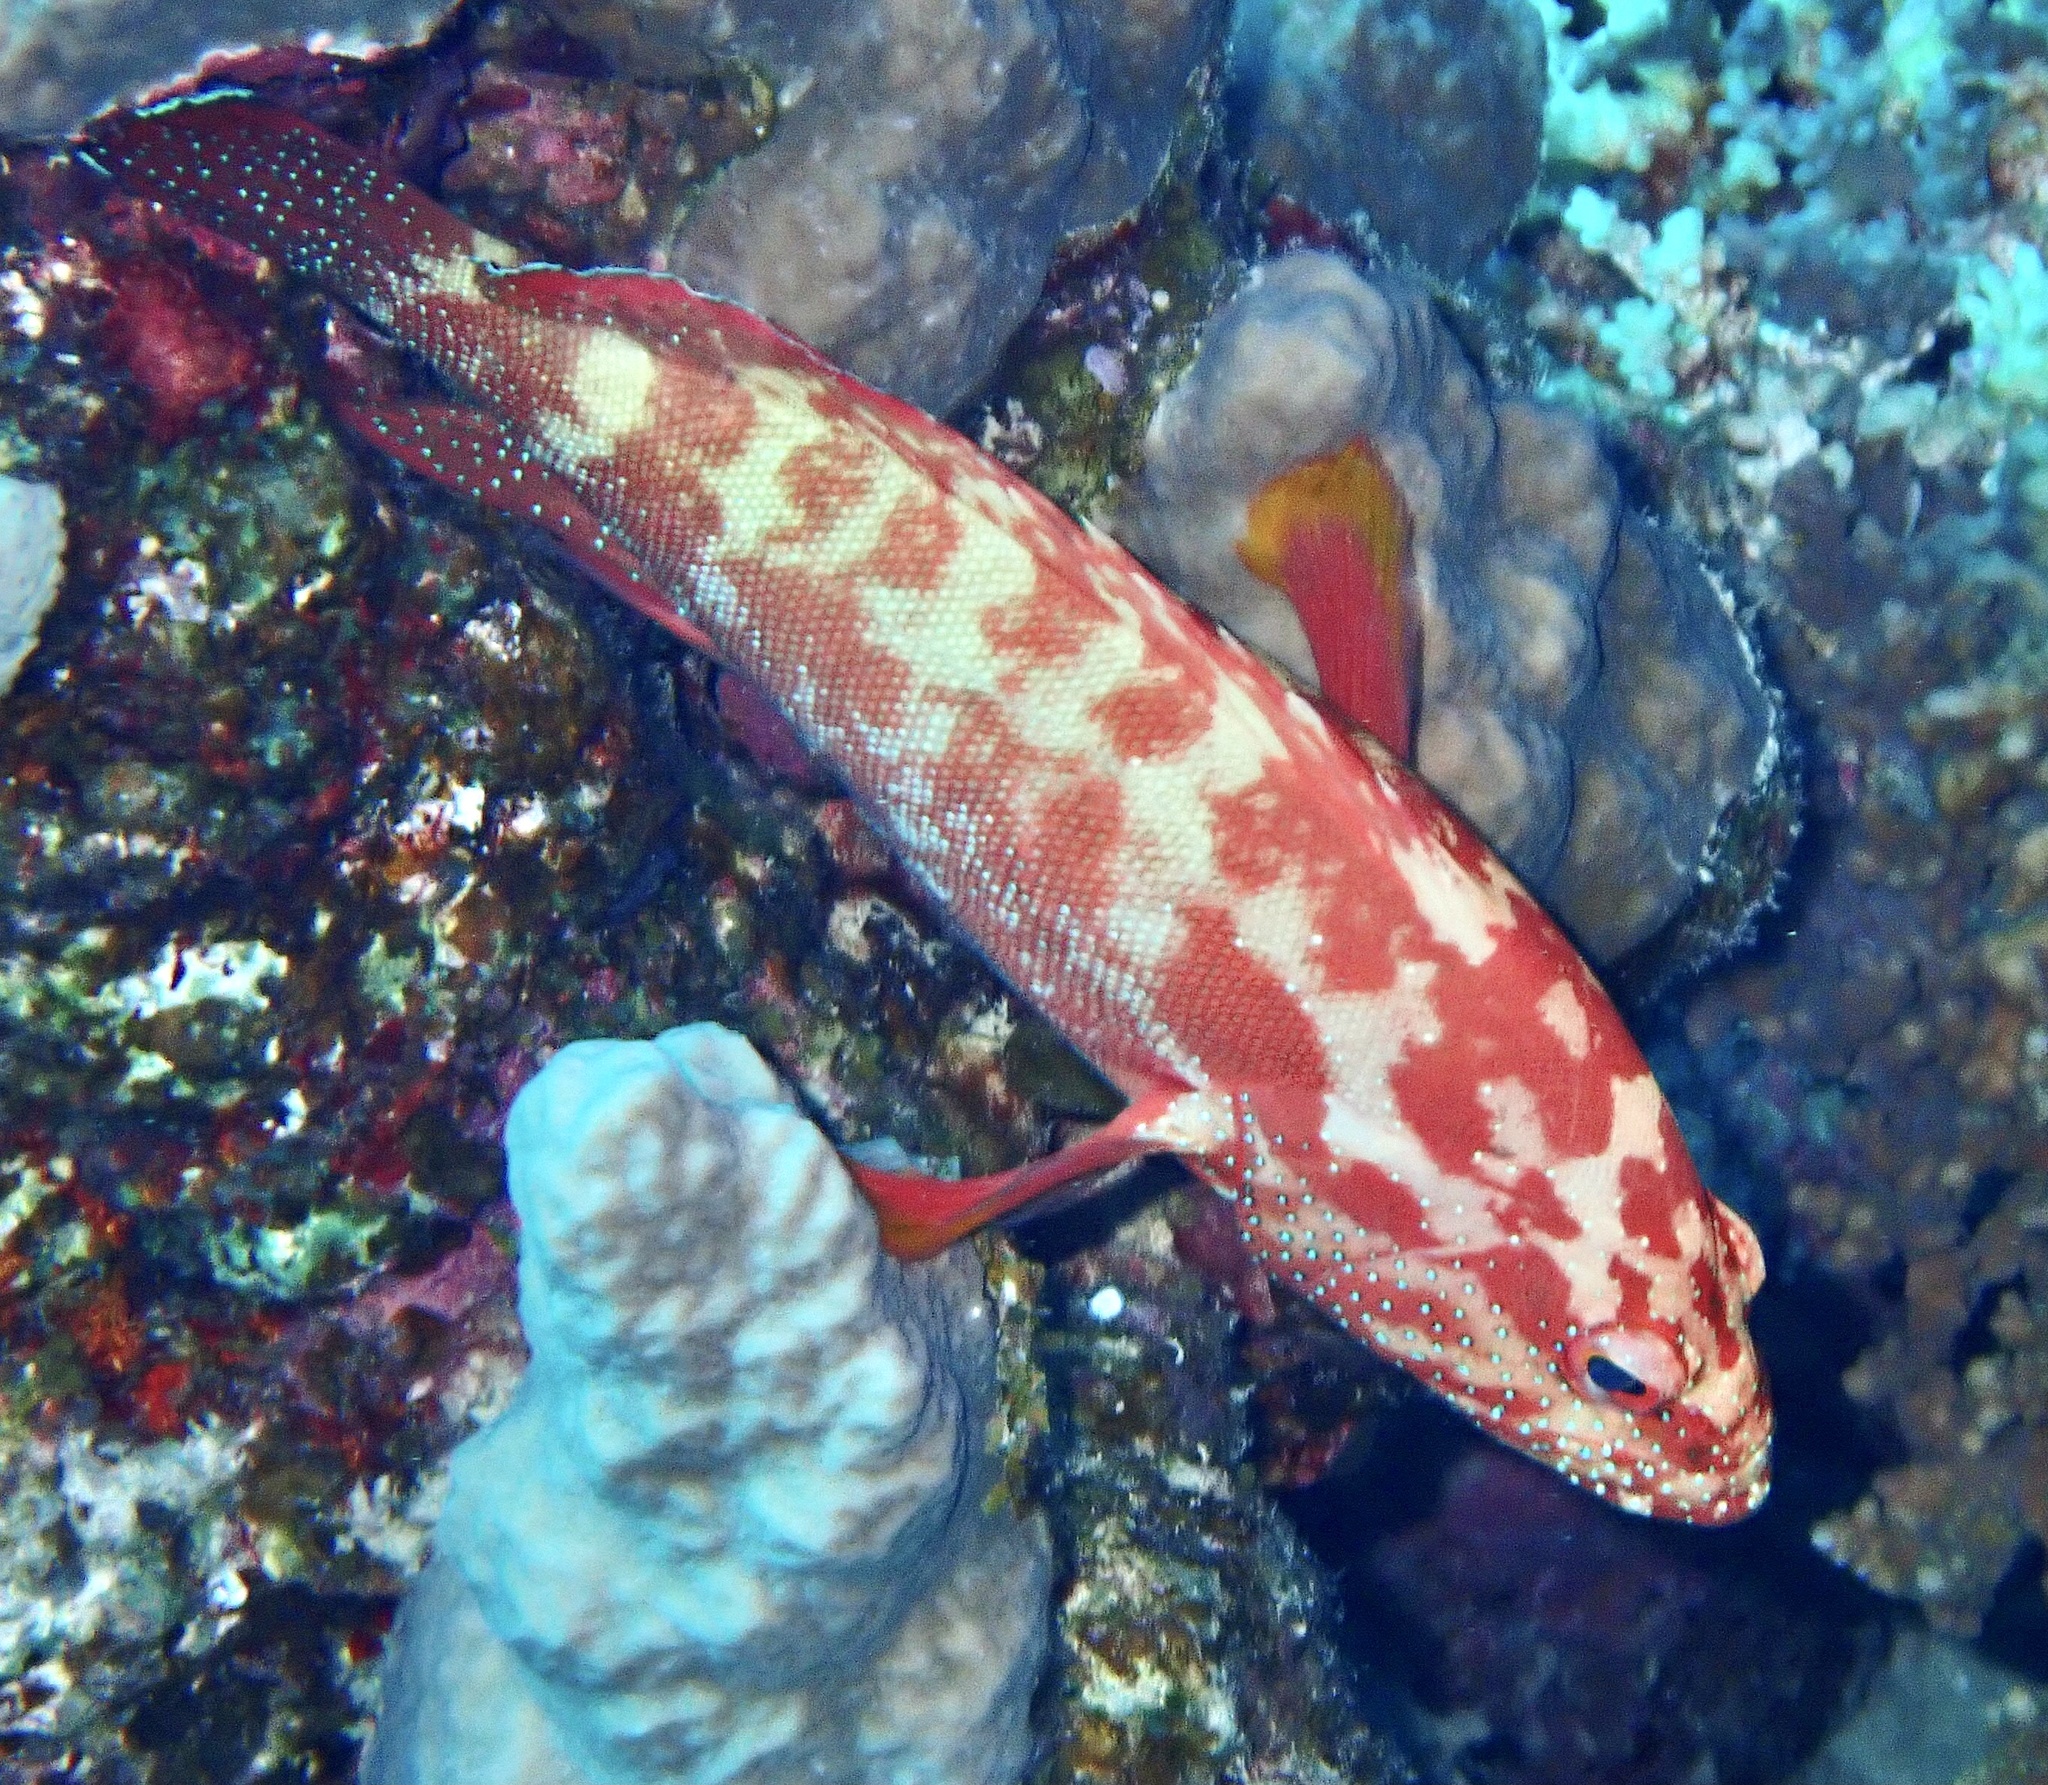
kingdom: Animalia
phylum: Chordata
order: Perciformes
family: Serranidae
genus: Cephalopholis
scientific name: Cephalopholis hemistiktos
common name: Halfspotted hind
